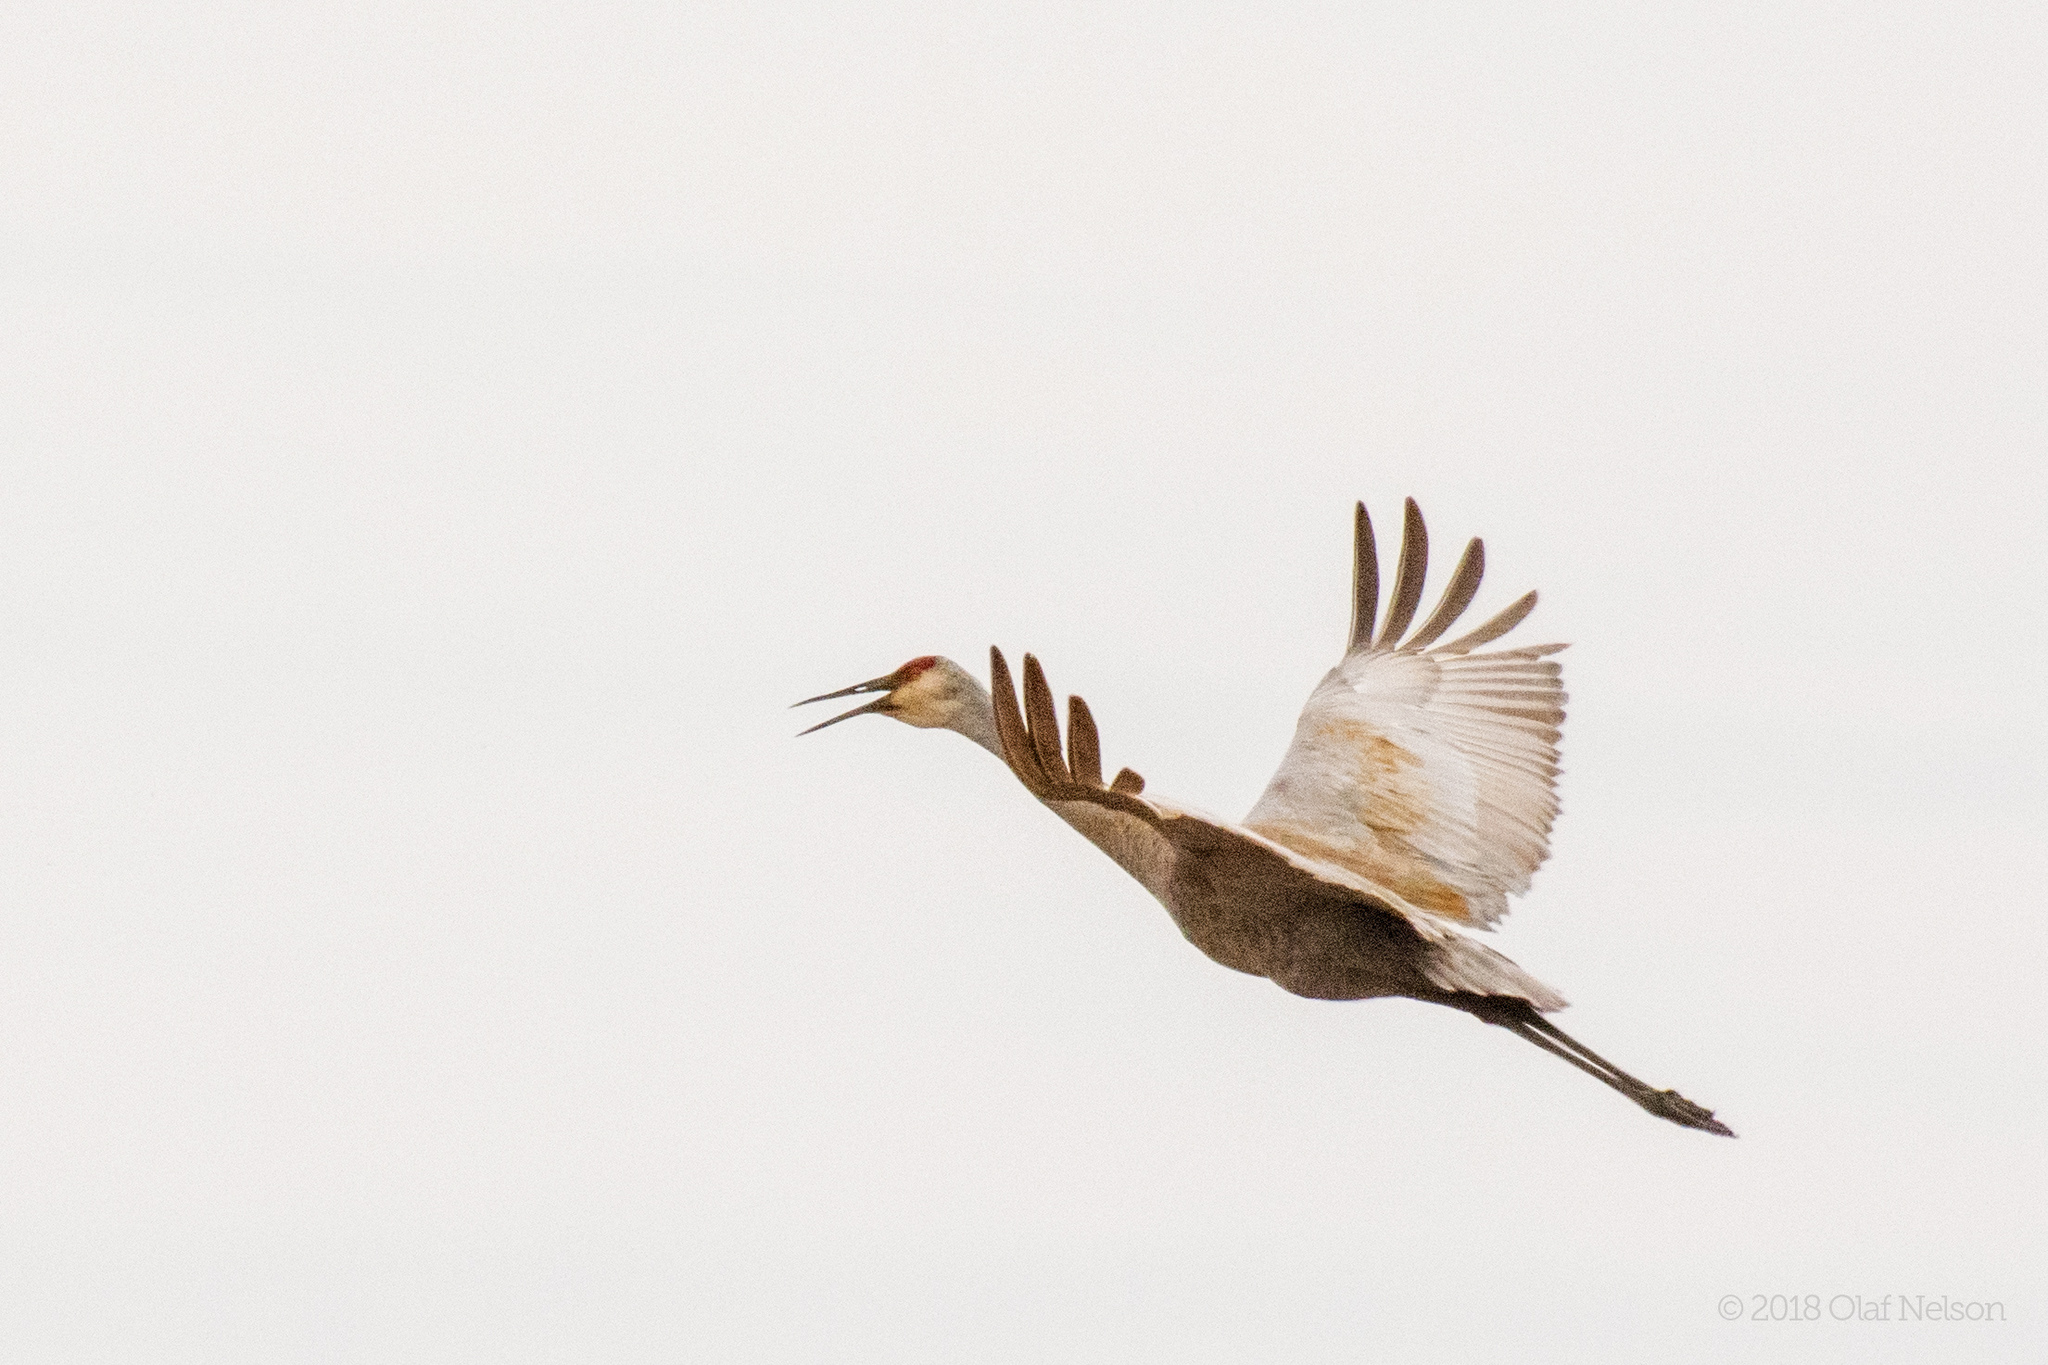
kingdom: Animalia
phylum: Chordata
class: Aves
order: Gruiformes
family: Gruidae
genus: Grus
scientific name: Grus canadensis
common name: Sandhill crane
